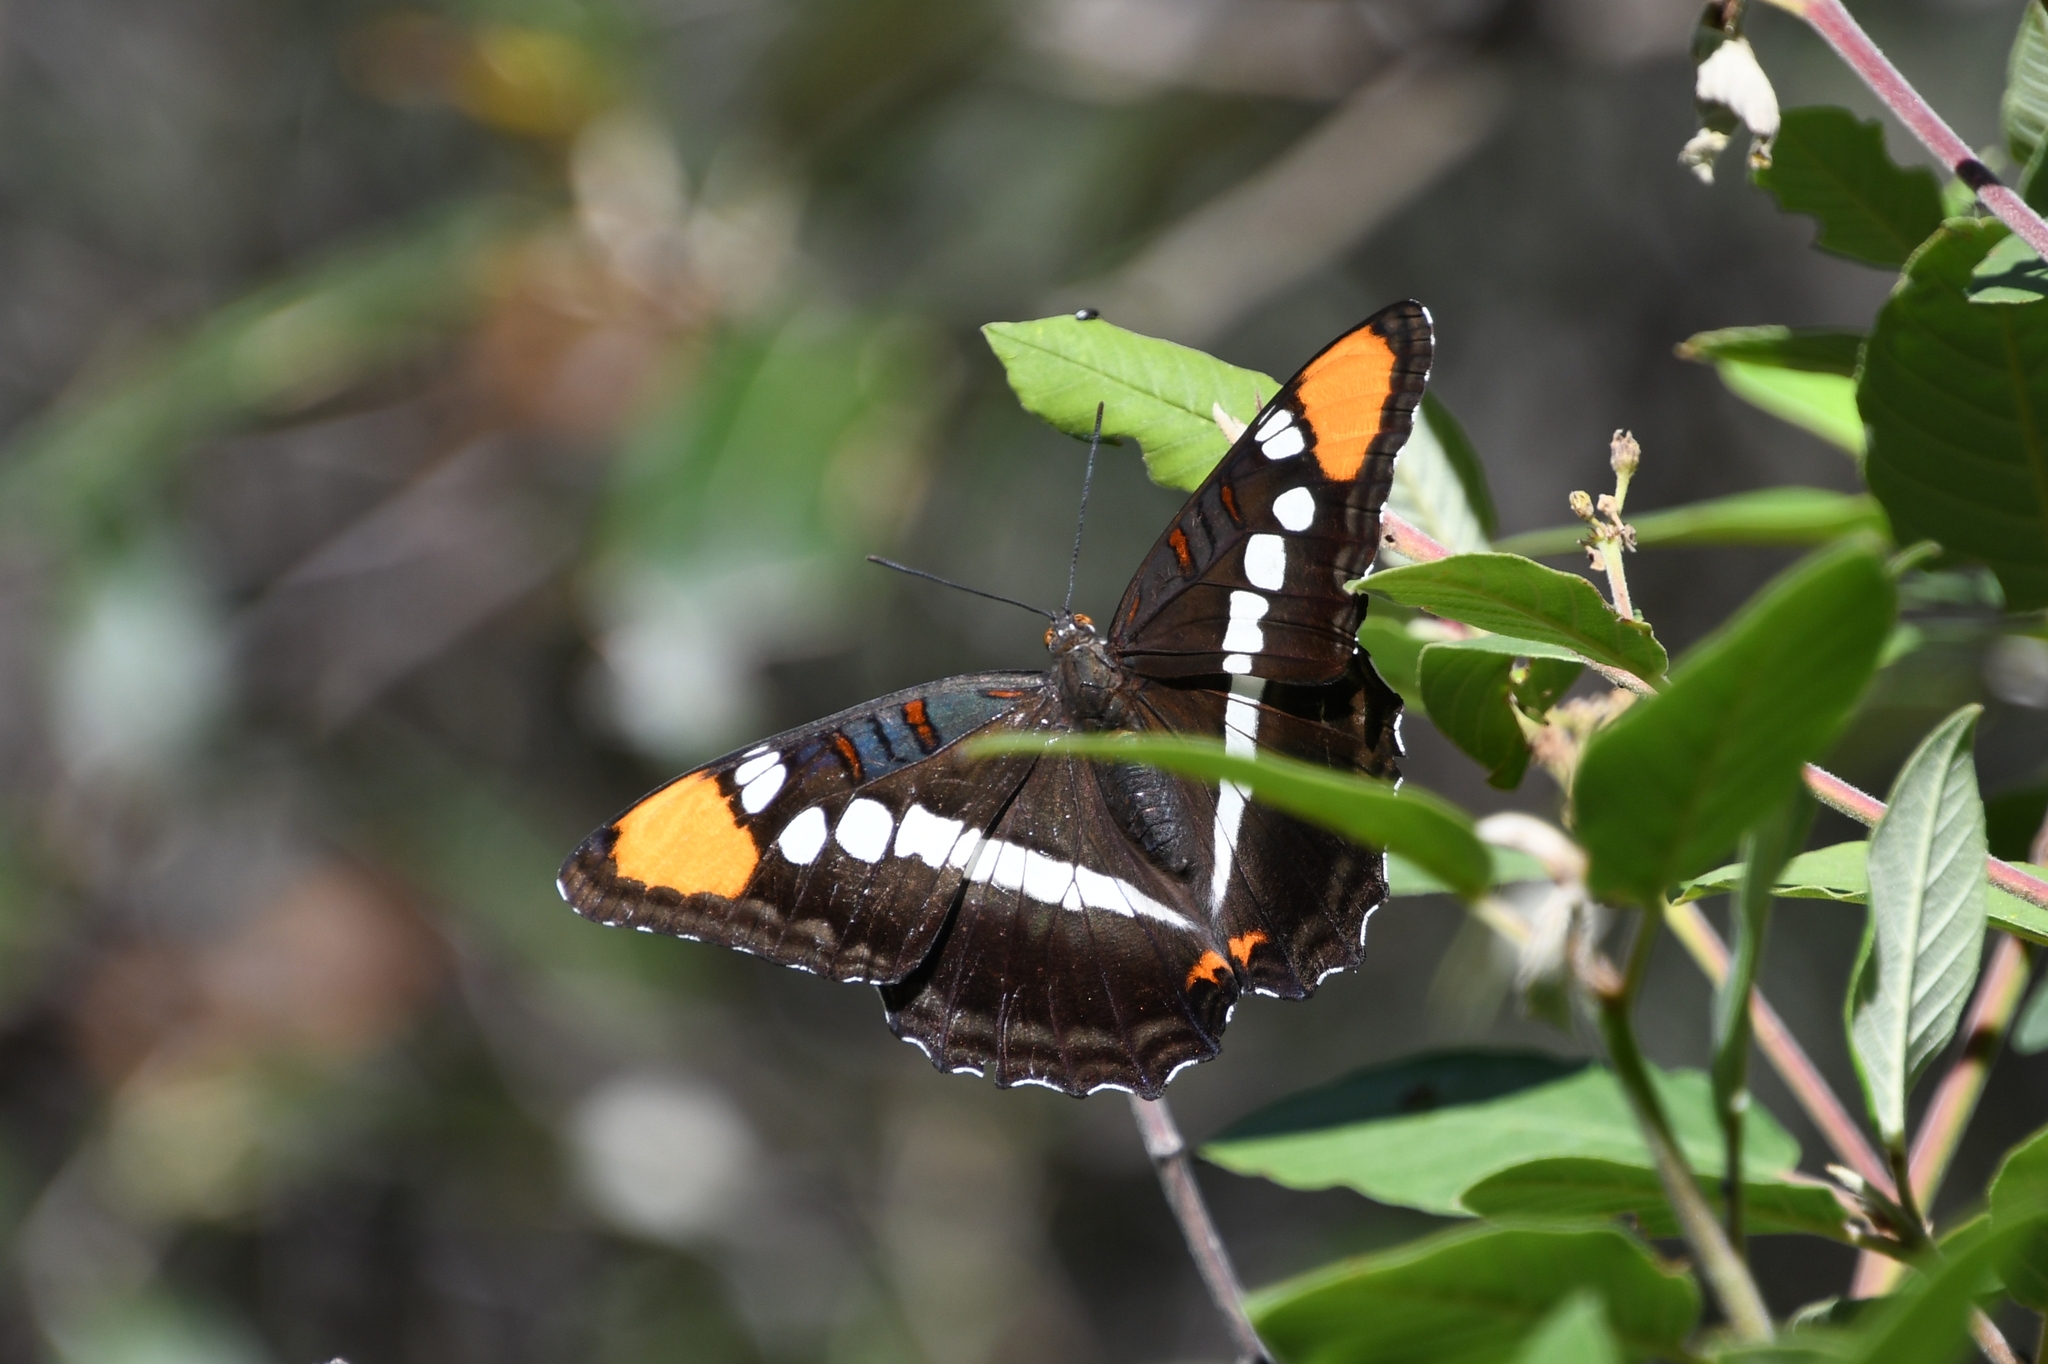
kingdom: Animalia
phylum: Arthropoda
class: Insecta
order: Lepidoptera
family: Nymphalidae
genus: Limenitis
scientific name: Limenitis bredowii
